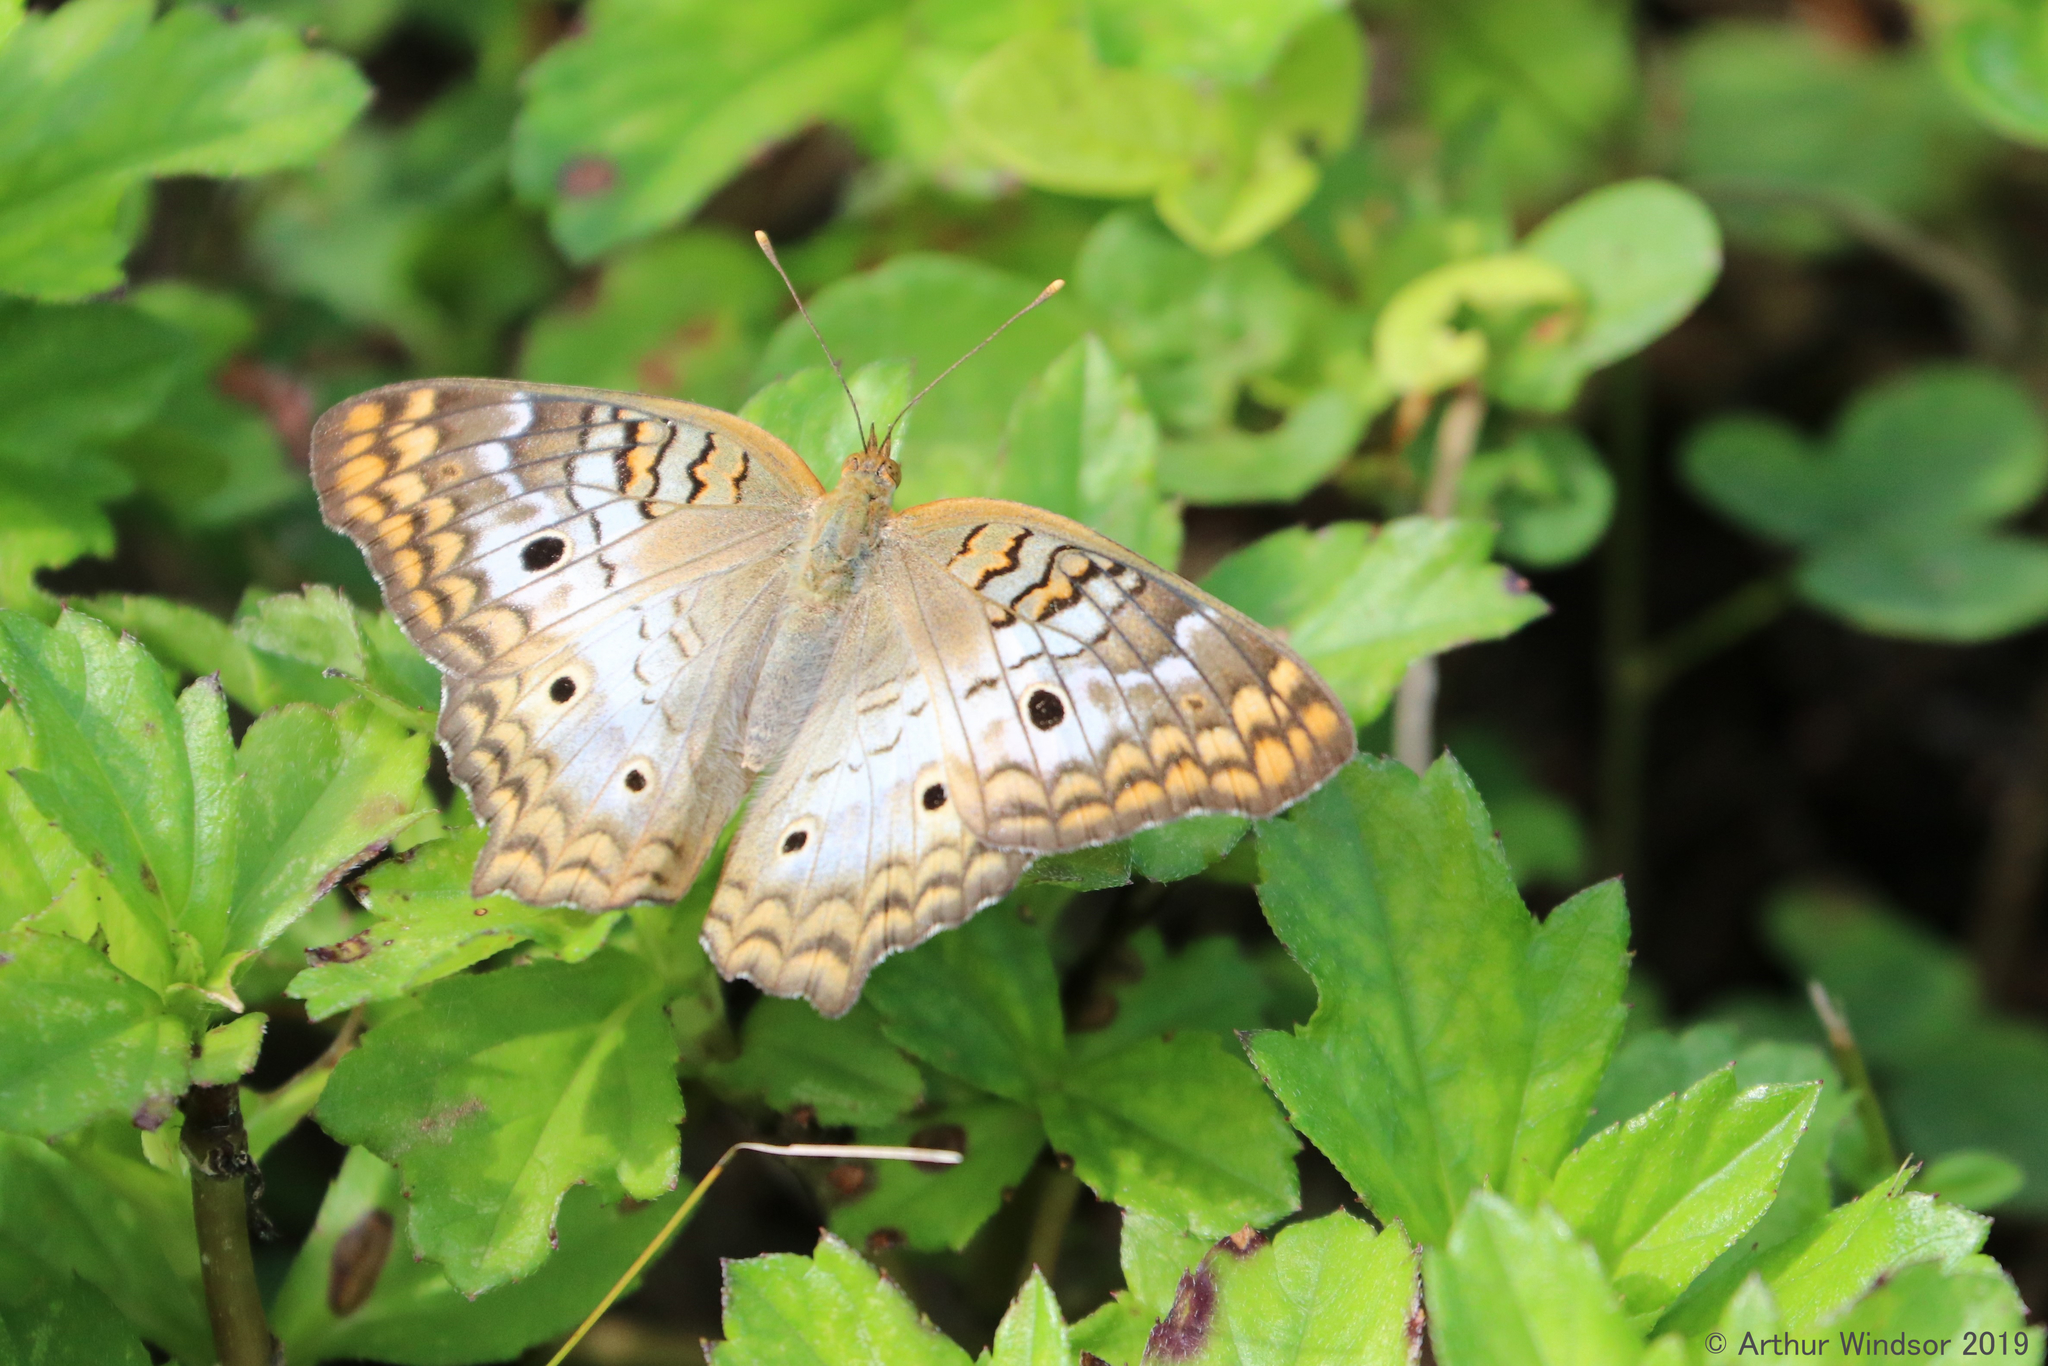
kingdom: Animalia
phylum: Arthropoda
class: Insecta
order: Lepidoptera
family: Nymphalidae
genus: Anartia
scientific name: Anartia jatrophae
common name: White peacock
